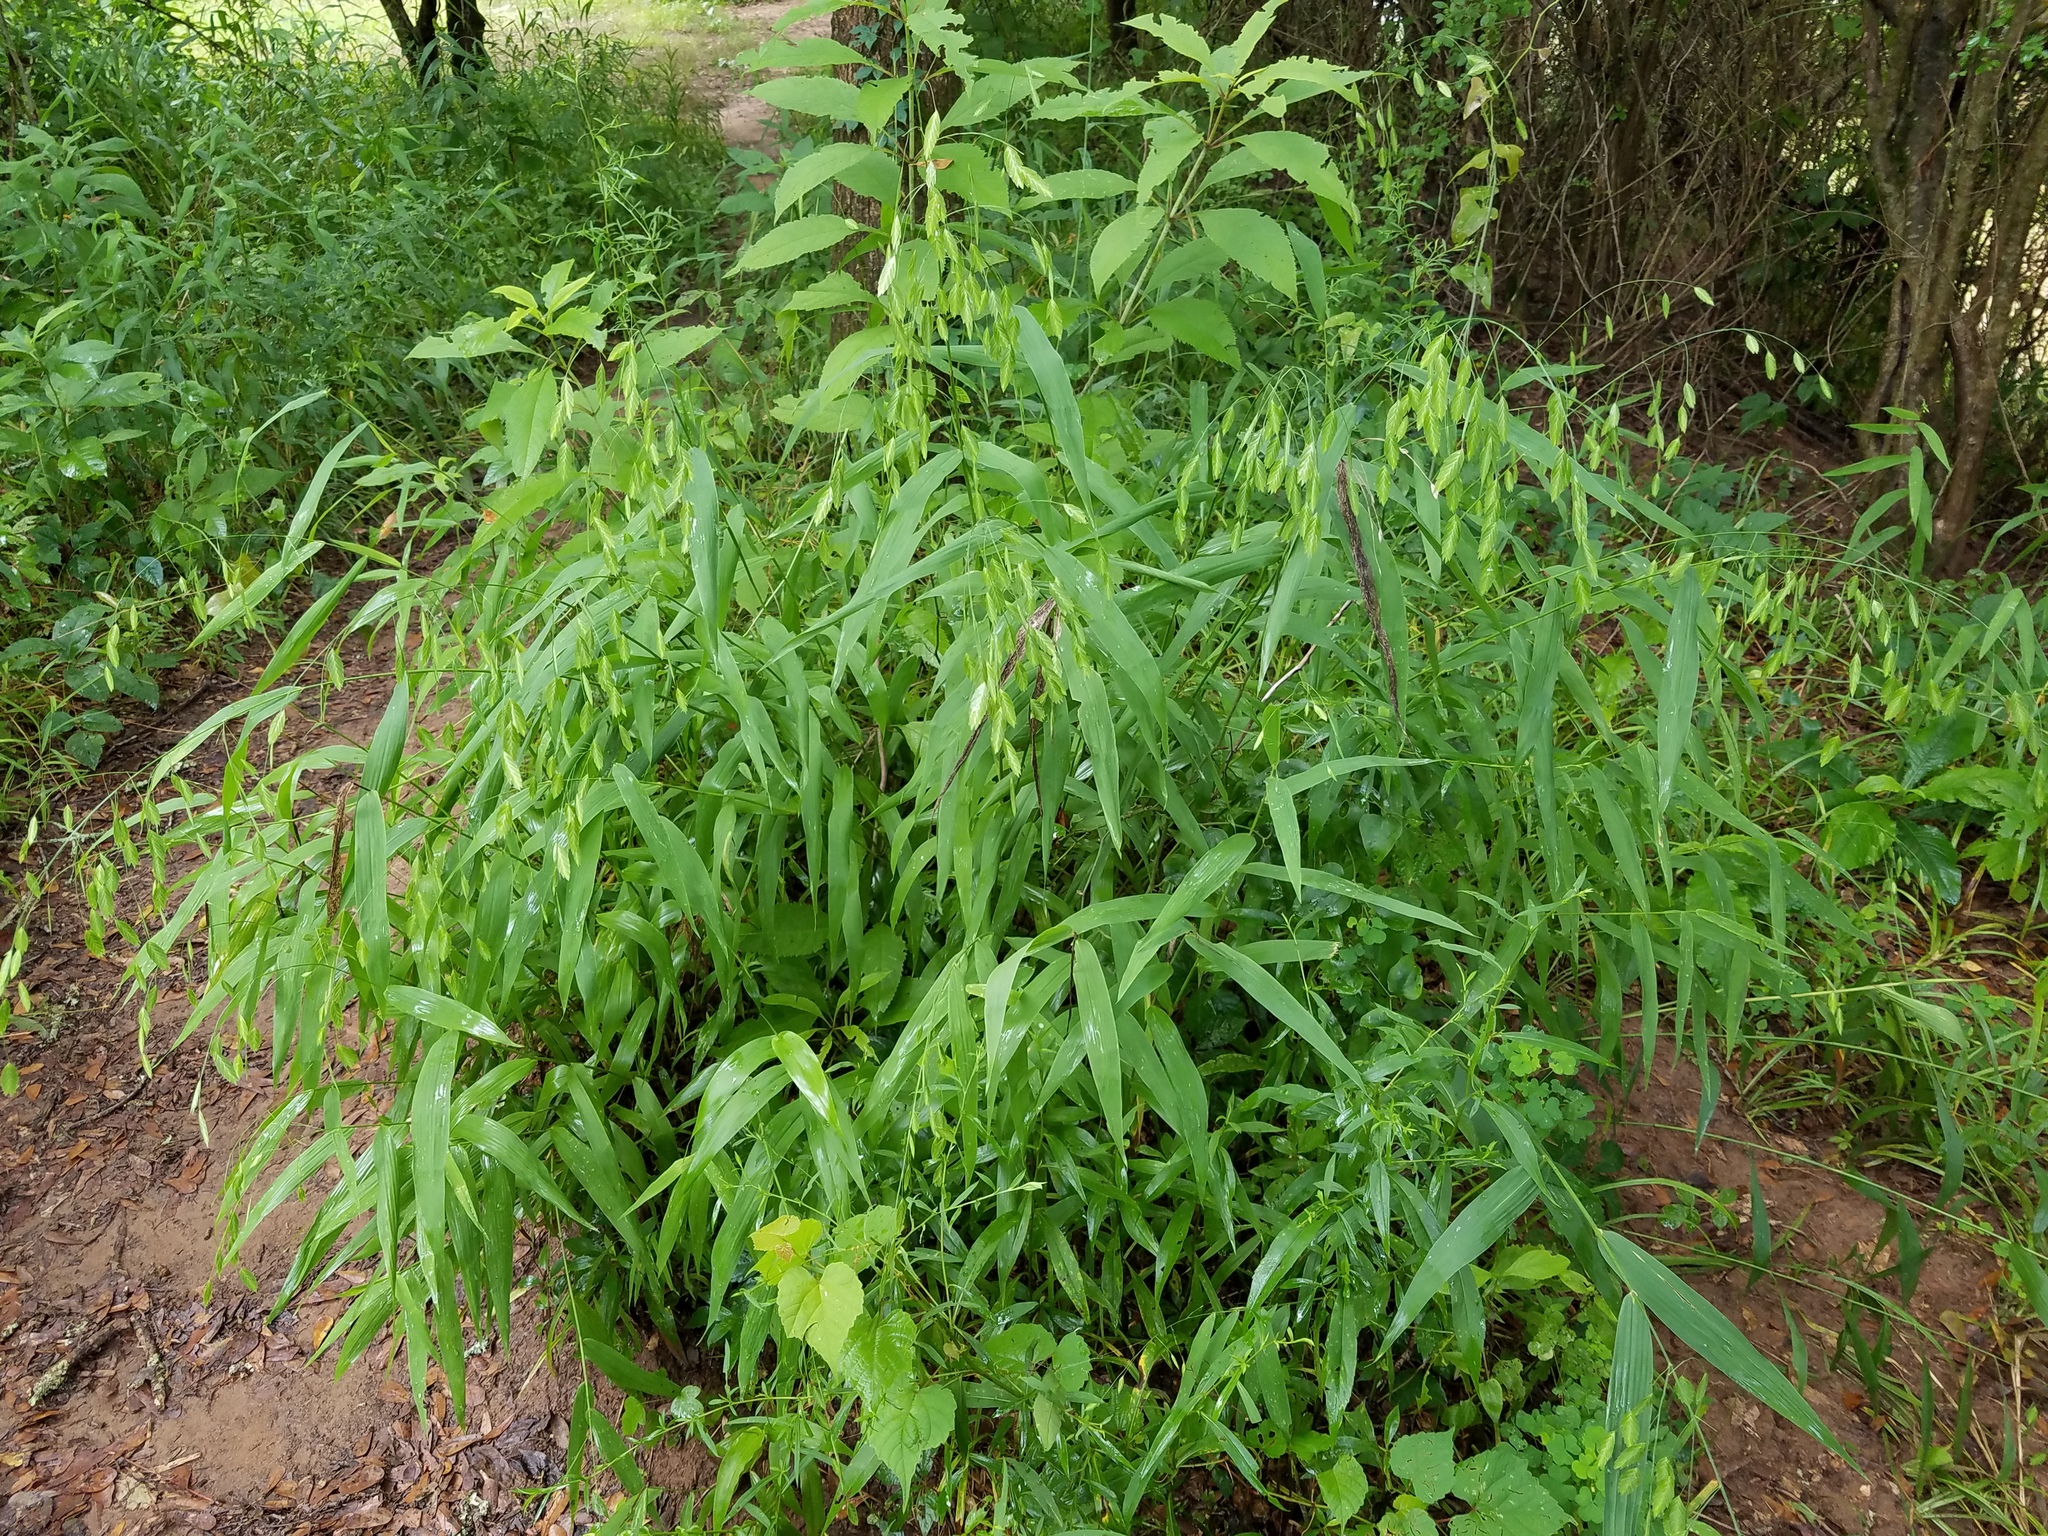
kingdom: Plantae
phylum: Tracheophyta
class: Liliopsida
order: Poales
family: Poaceae
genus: Chasmanthium
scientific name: Chasmanthium latifolium
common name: Broad-leaved chasmanthium
